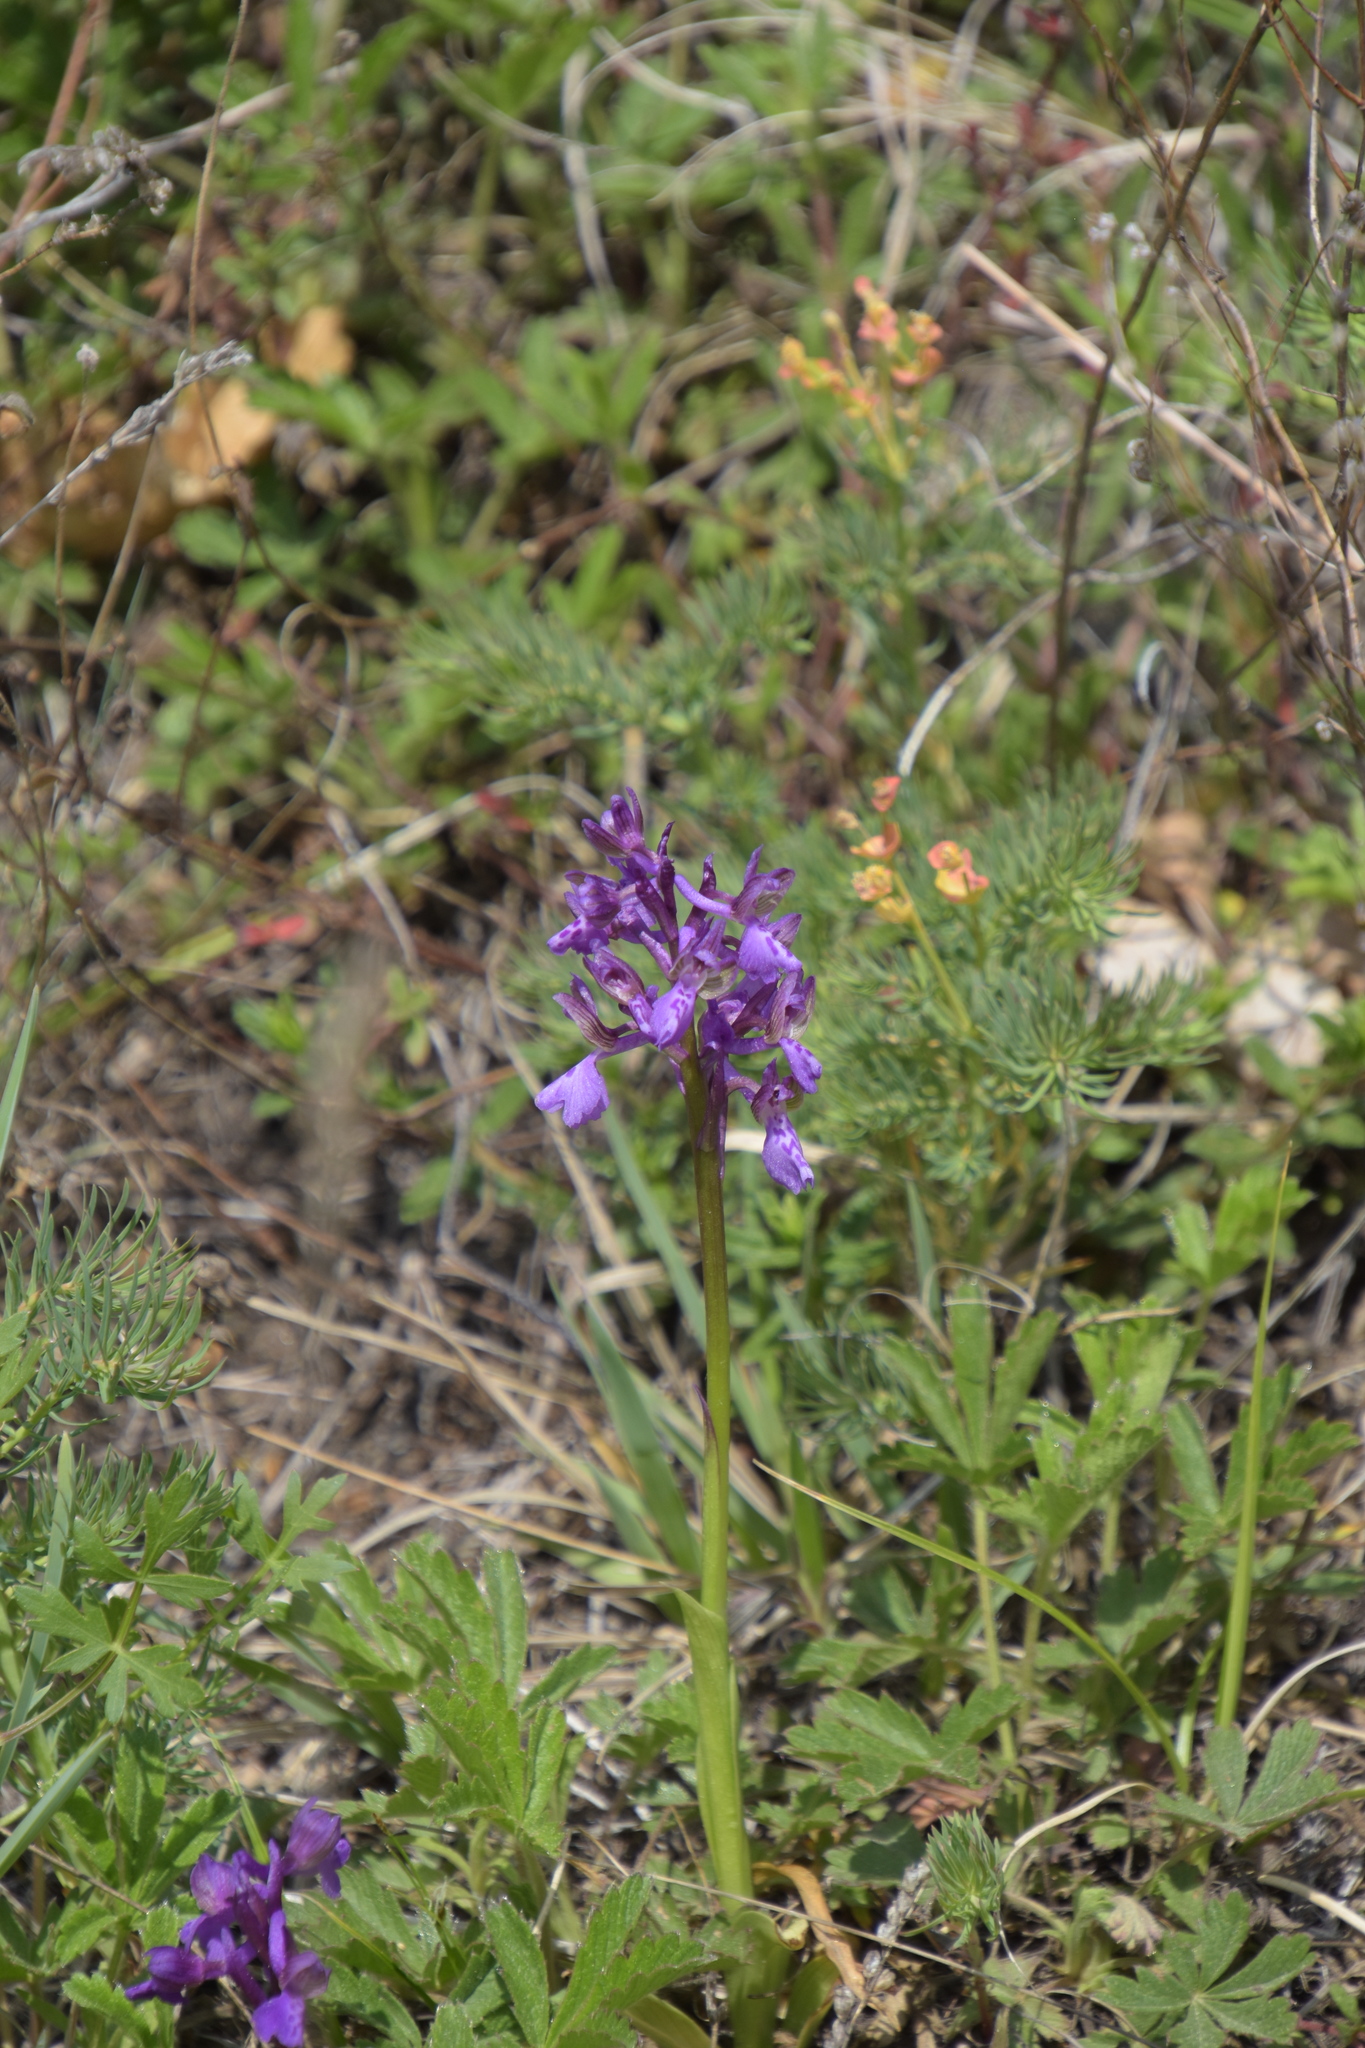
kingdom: Plantae
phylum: Tracheophyta
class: Liliopsida
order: Asparagales
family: Orchidaceae
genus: Anacamptis
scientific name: Anacamptis morio
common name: Green-winged orchid
